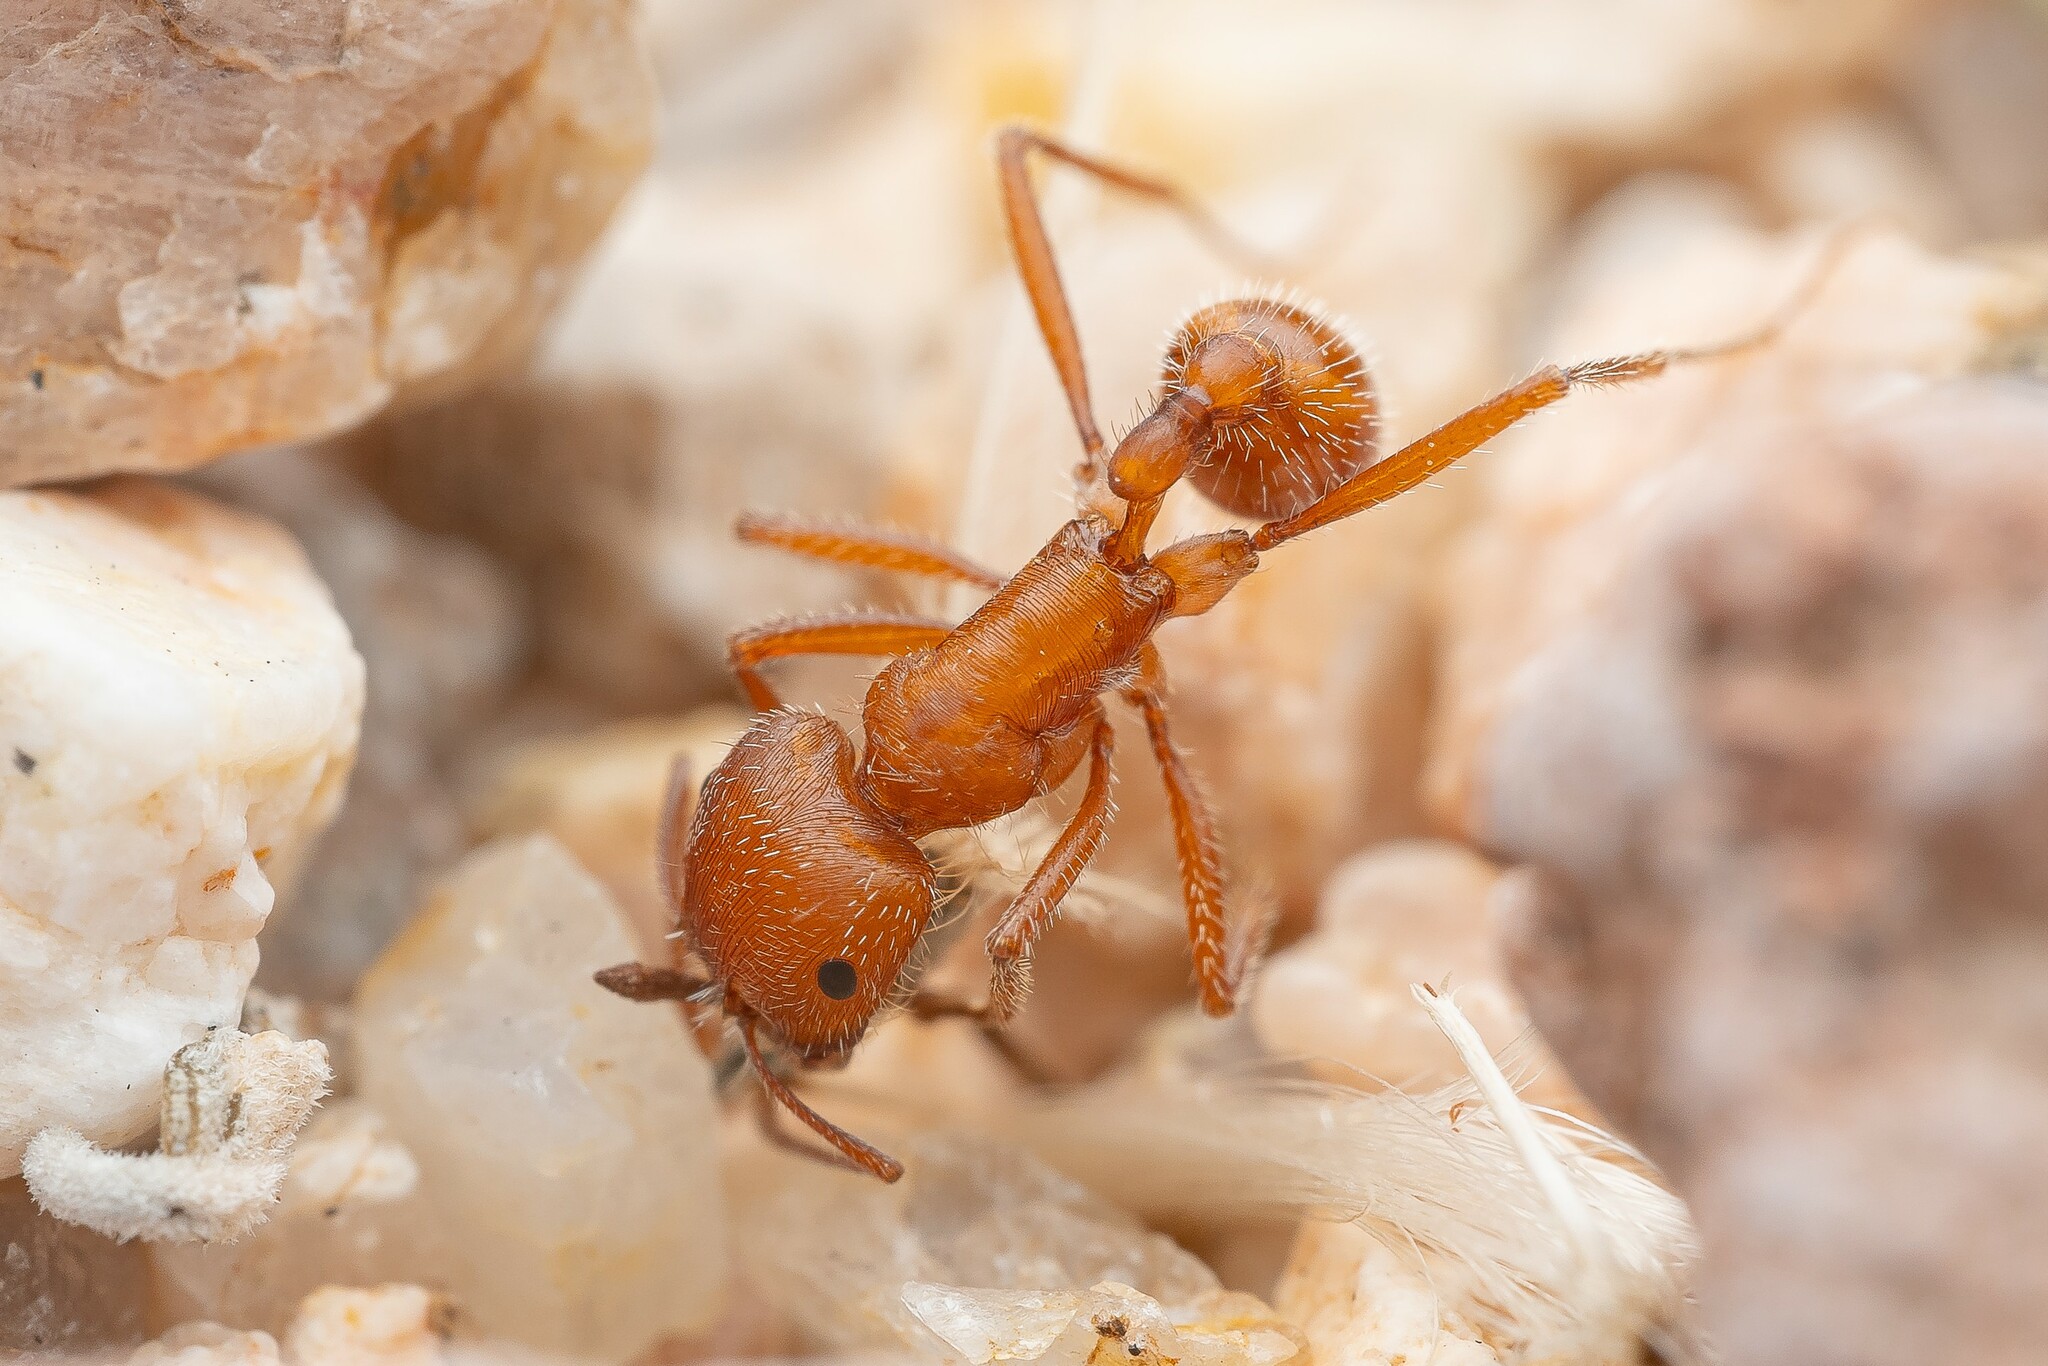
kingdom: Animalia
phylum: Arthropoda
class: Insecta
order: Hymenoptera
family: Formicidae
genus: Pogonomyrmex
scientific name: Pogonomyrmex maricopa
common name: Maricopa harvester ant
